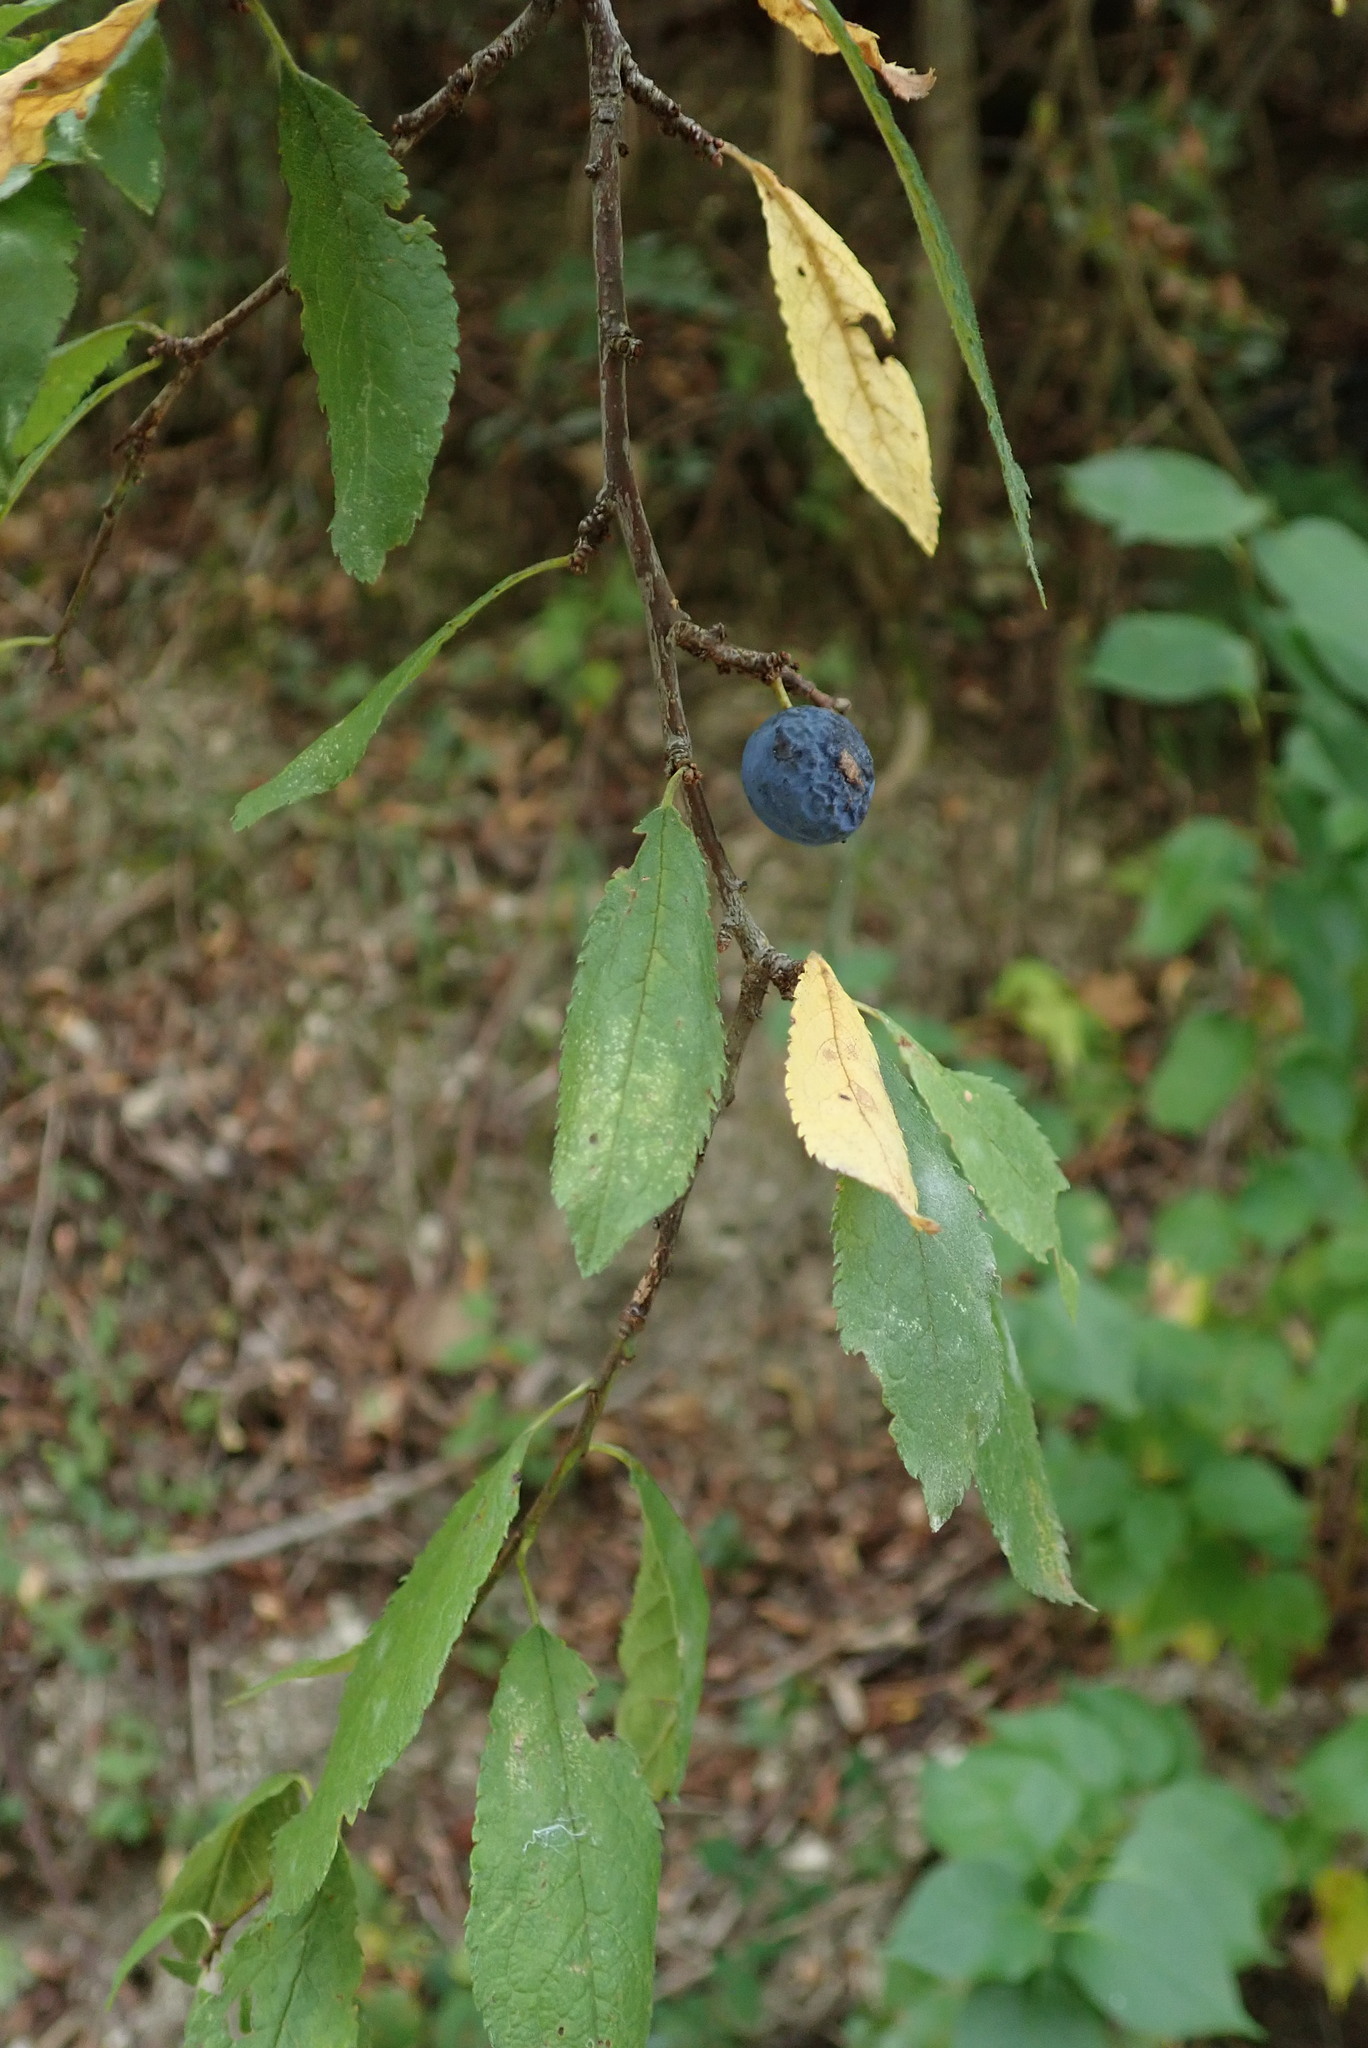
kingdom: Plantae
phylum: Tracheophyta
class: Magnoliopsida
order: Rosales
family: Rosaceae
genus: Prunus
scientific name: Prunus spinosa
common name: Blackthorn
